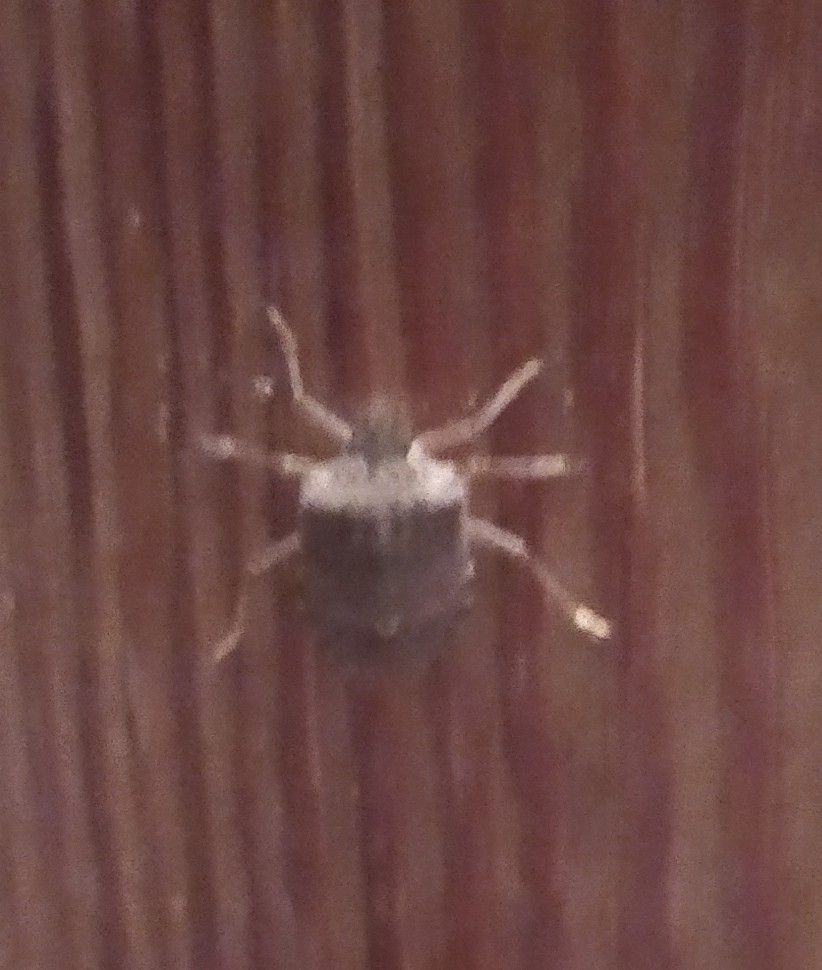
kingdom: Animalia
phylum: Arthropoda
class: Insecta
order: Hemiptera
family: Pentatomidae
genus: Halyomorpha
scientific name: Halyomorpha halys
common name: Brown marmorated stink bug
